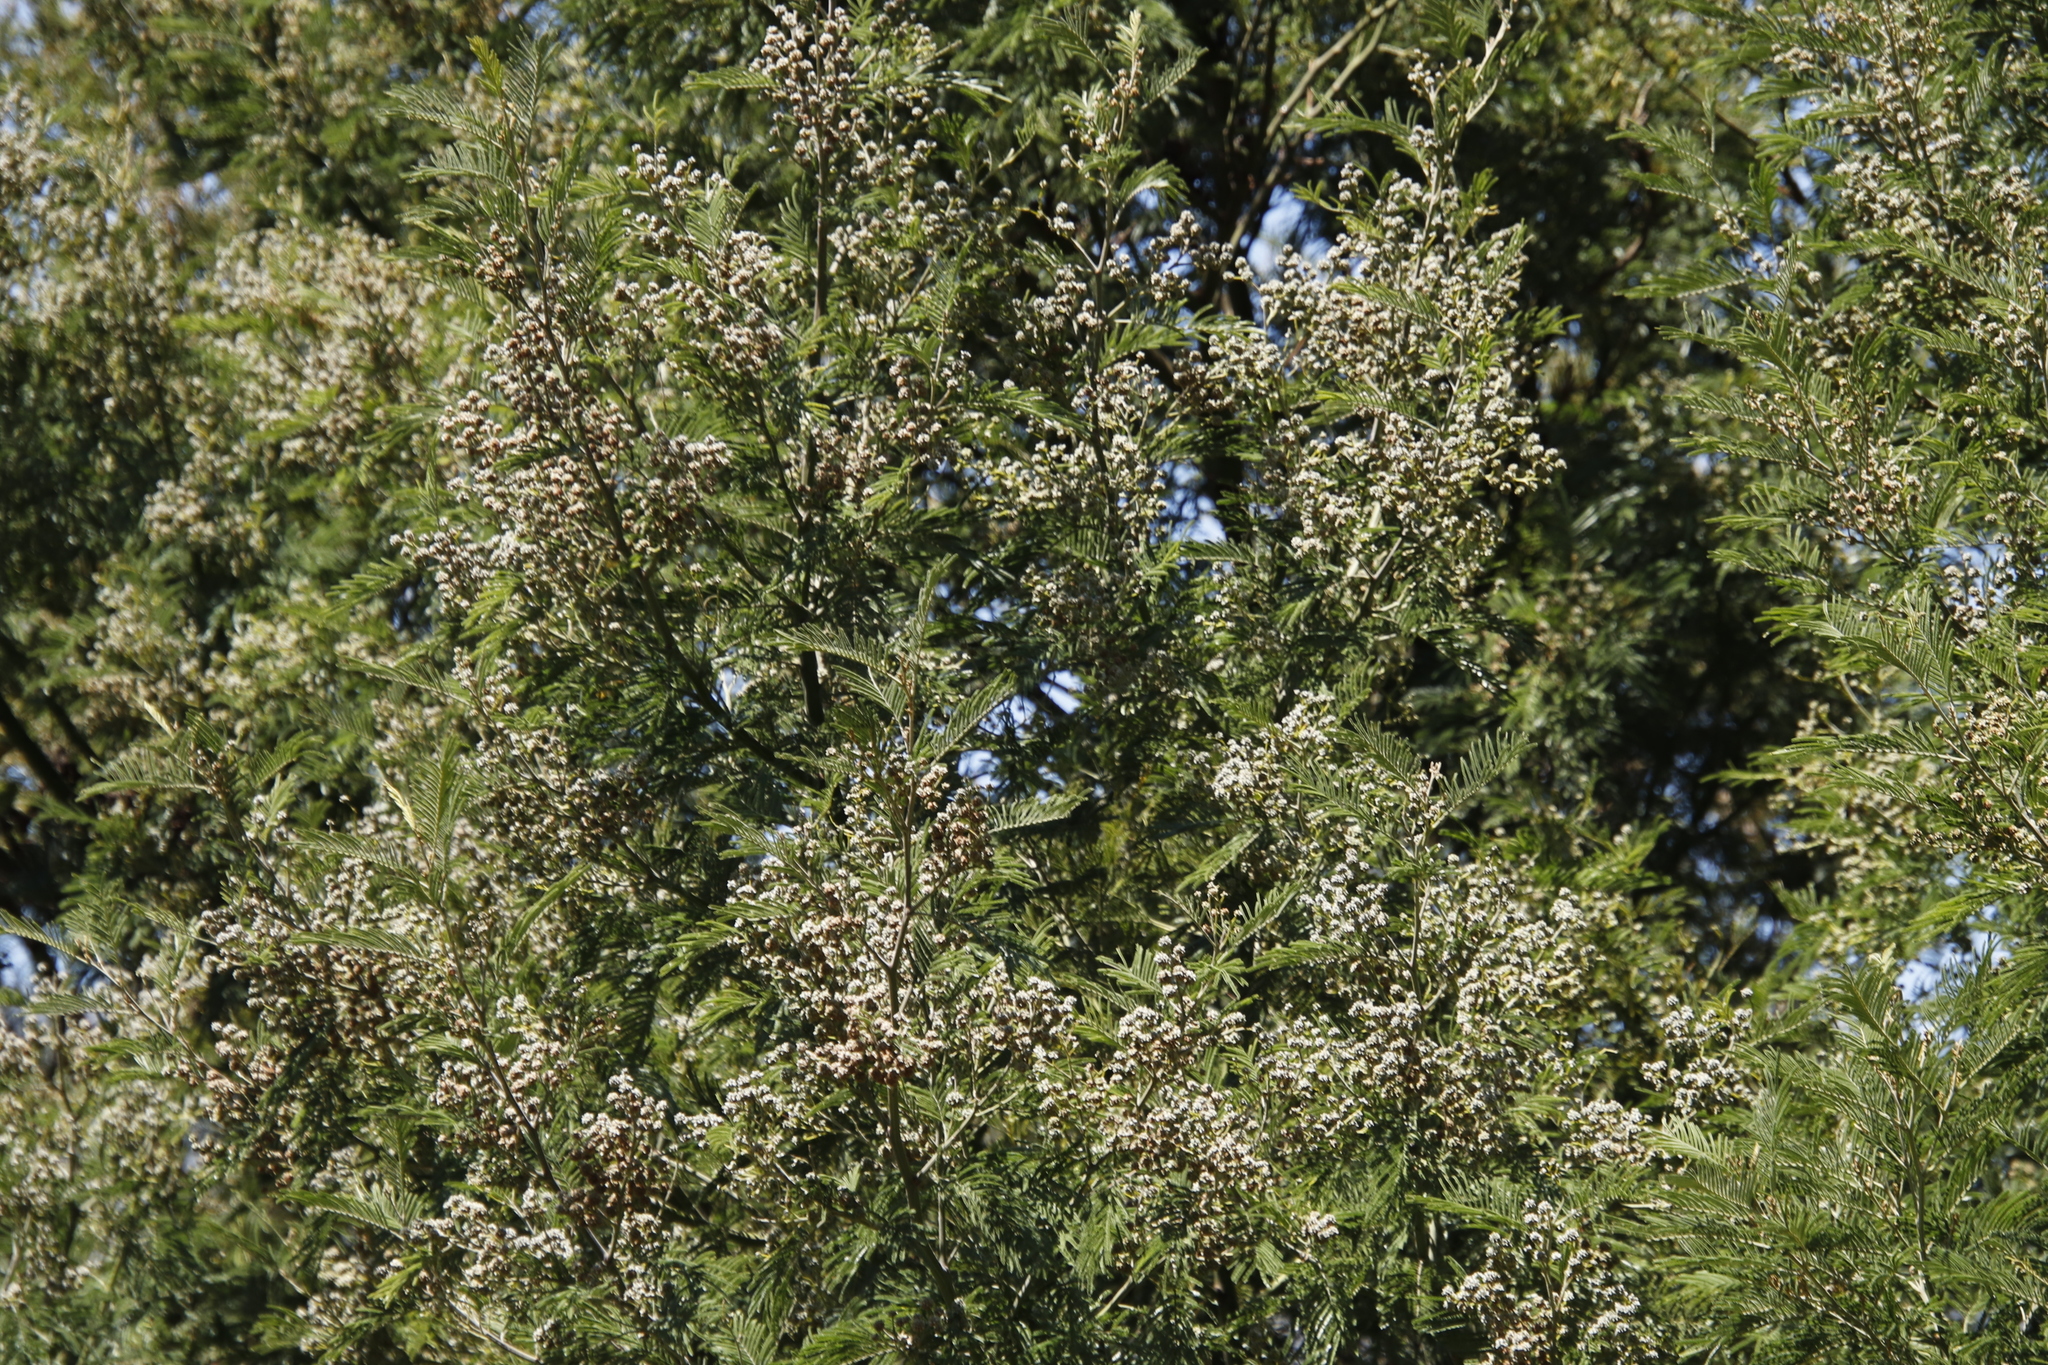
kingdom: Animalia
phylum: Arthropoda
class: Insecta
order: Diptera
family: Cecidomyiidae
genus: Dasineura
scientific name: Dasineura rubiformis
